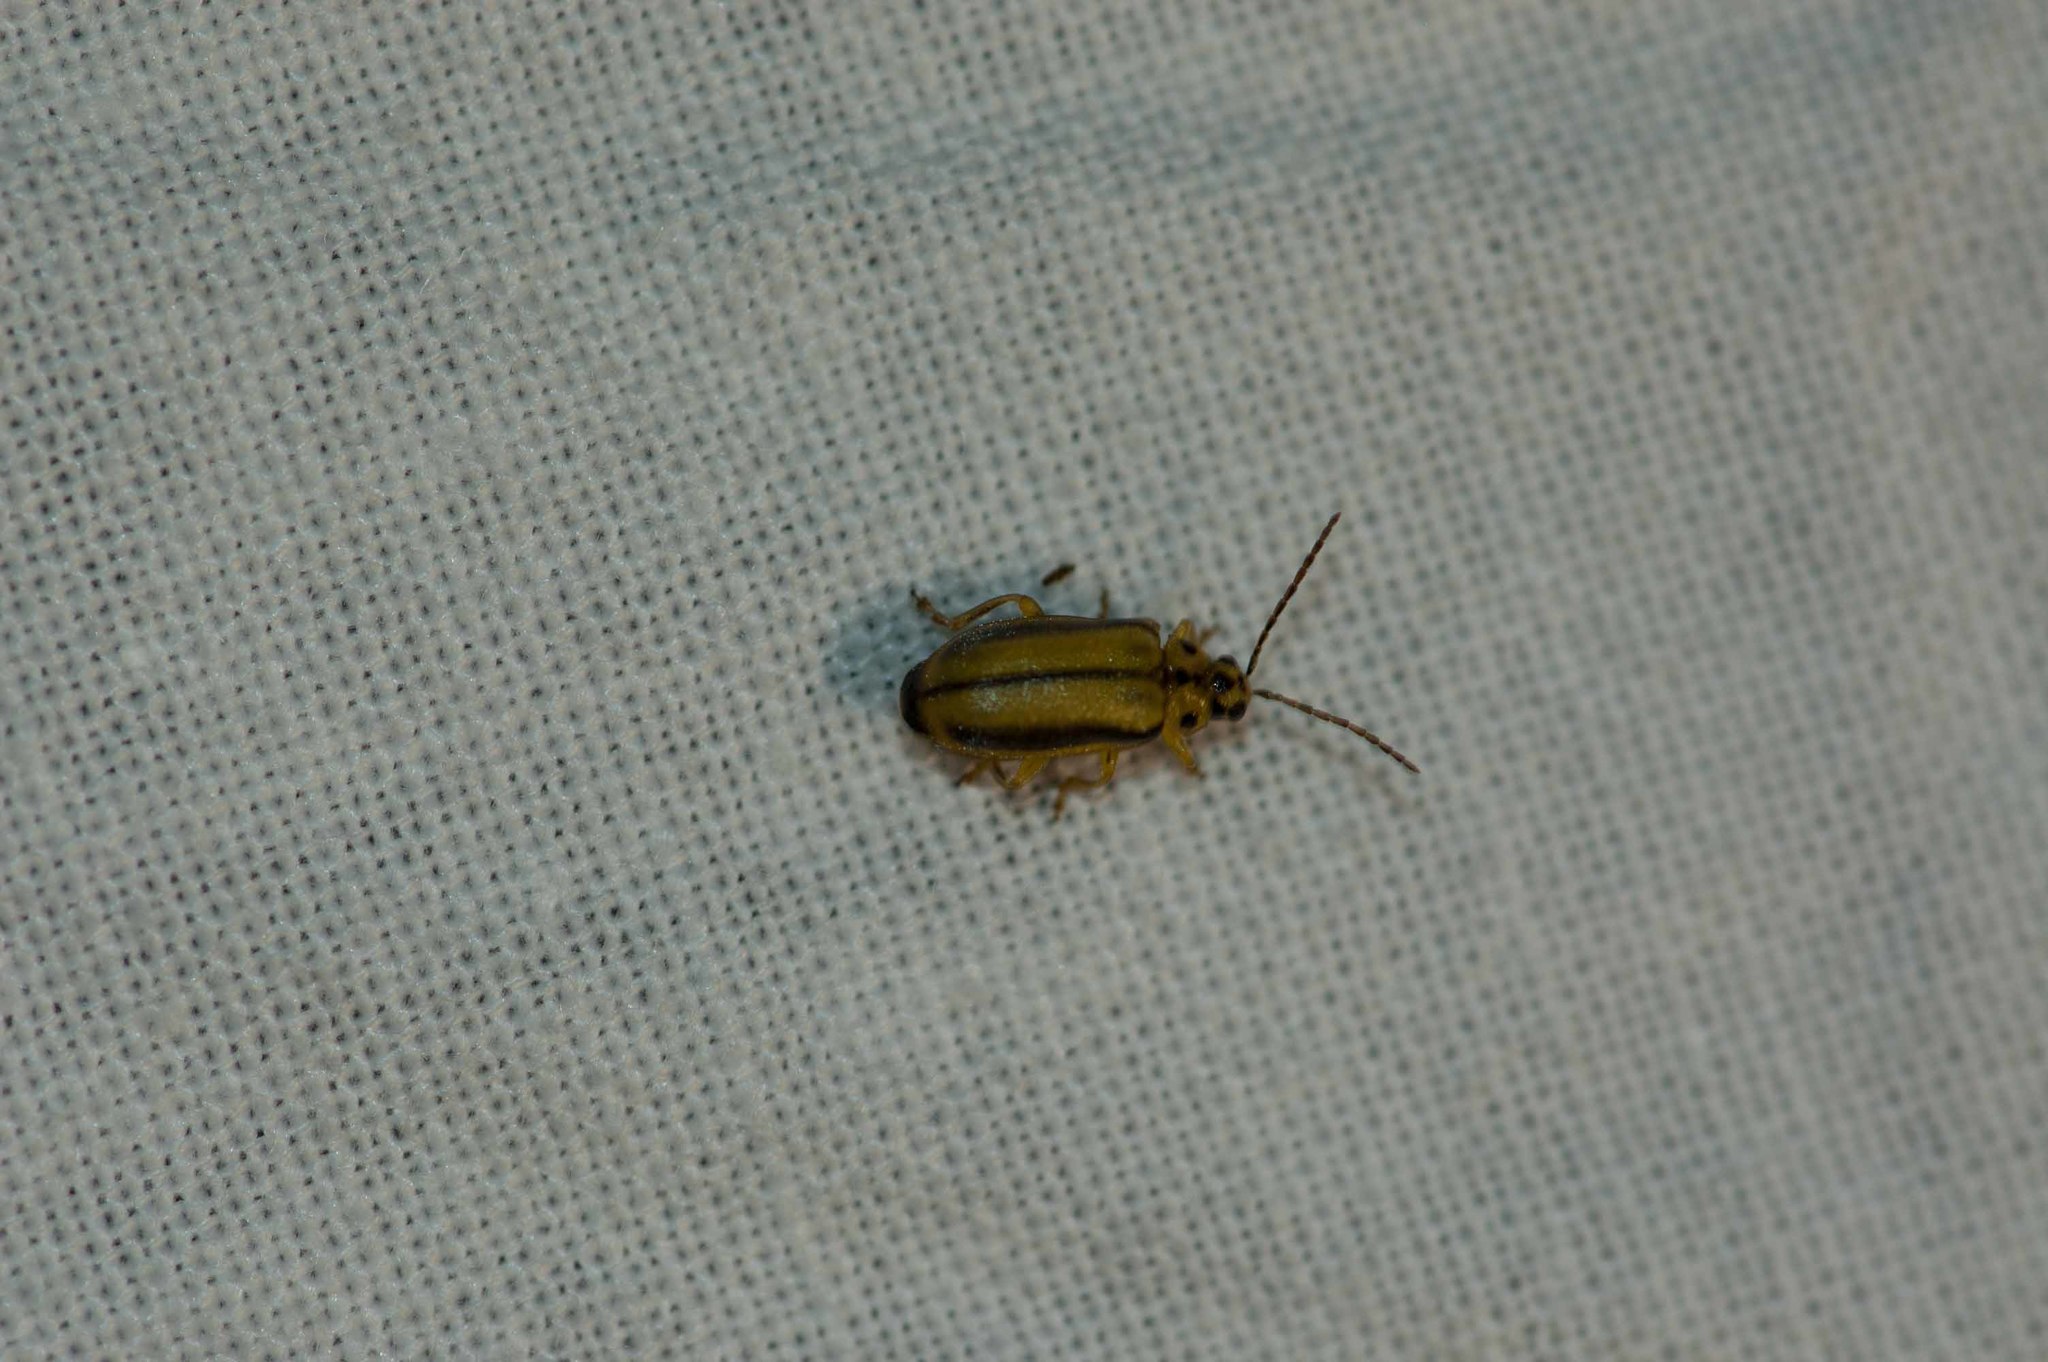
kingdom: Animalia
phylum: Arthropoda
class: Insecta
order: Coleoptera
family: Chrysomelidae
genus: Xanthogaleruca
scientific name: Xanthogaleruca luteola
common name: Elm leaf beetle
